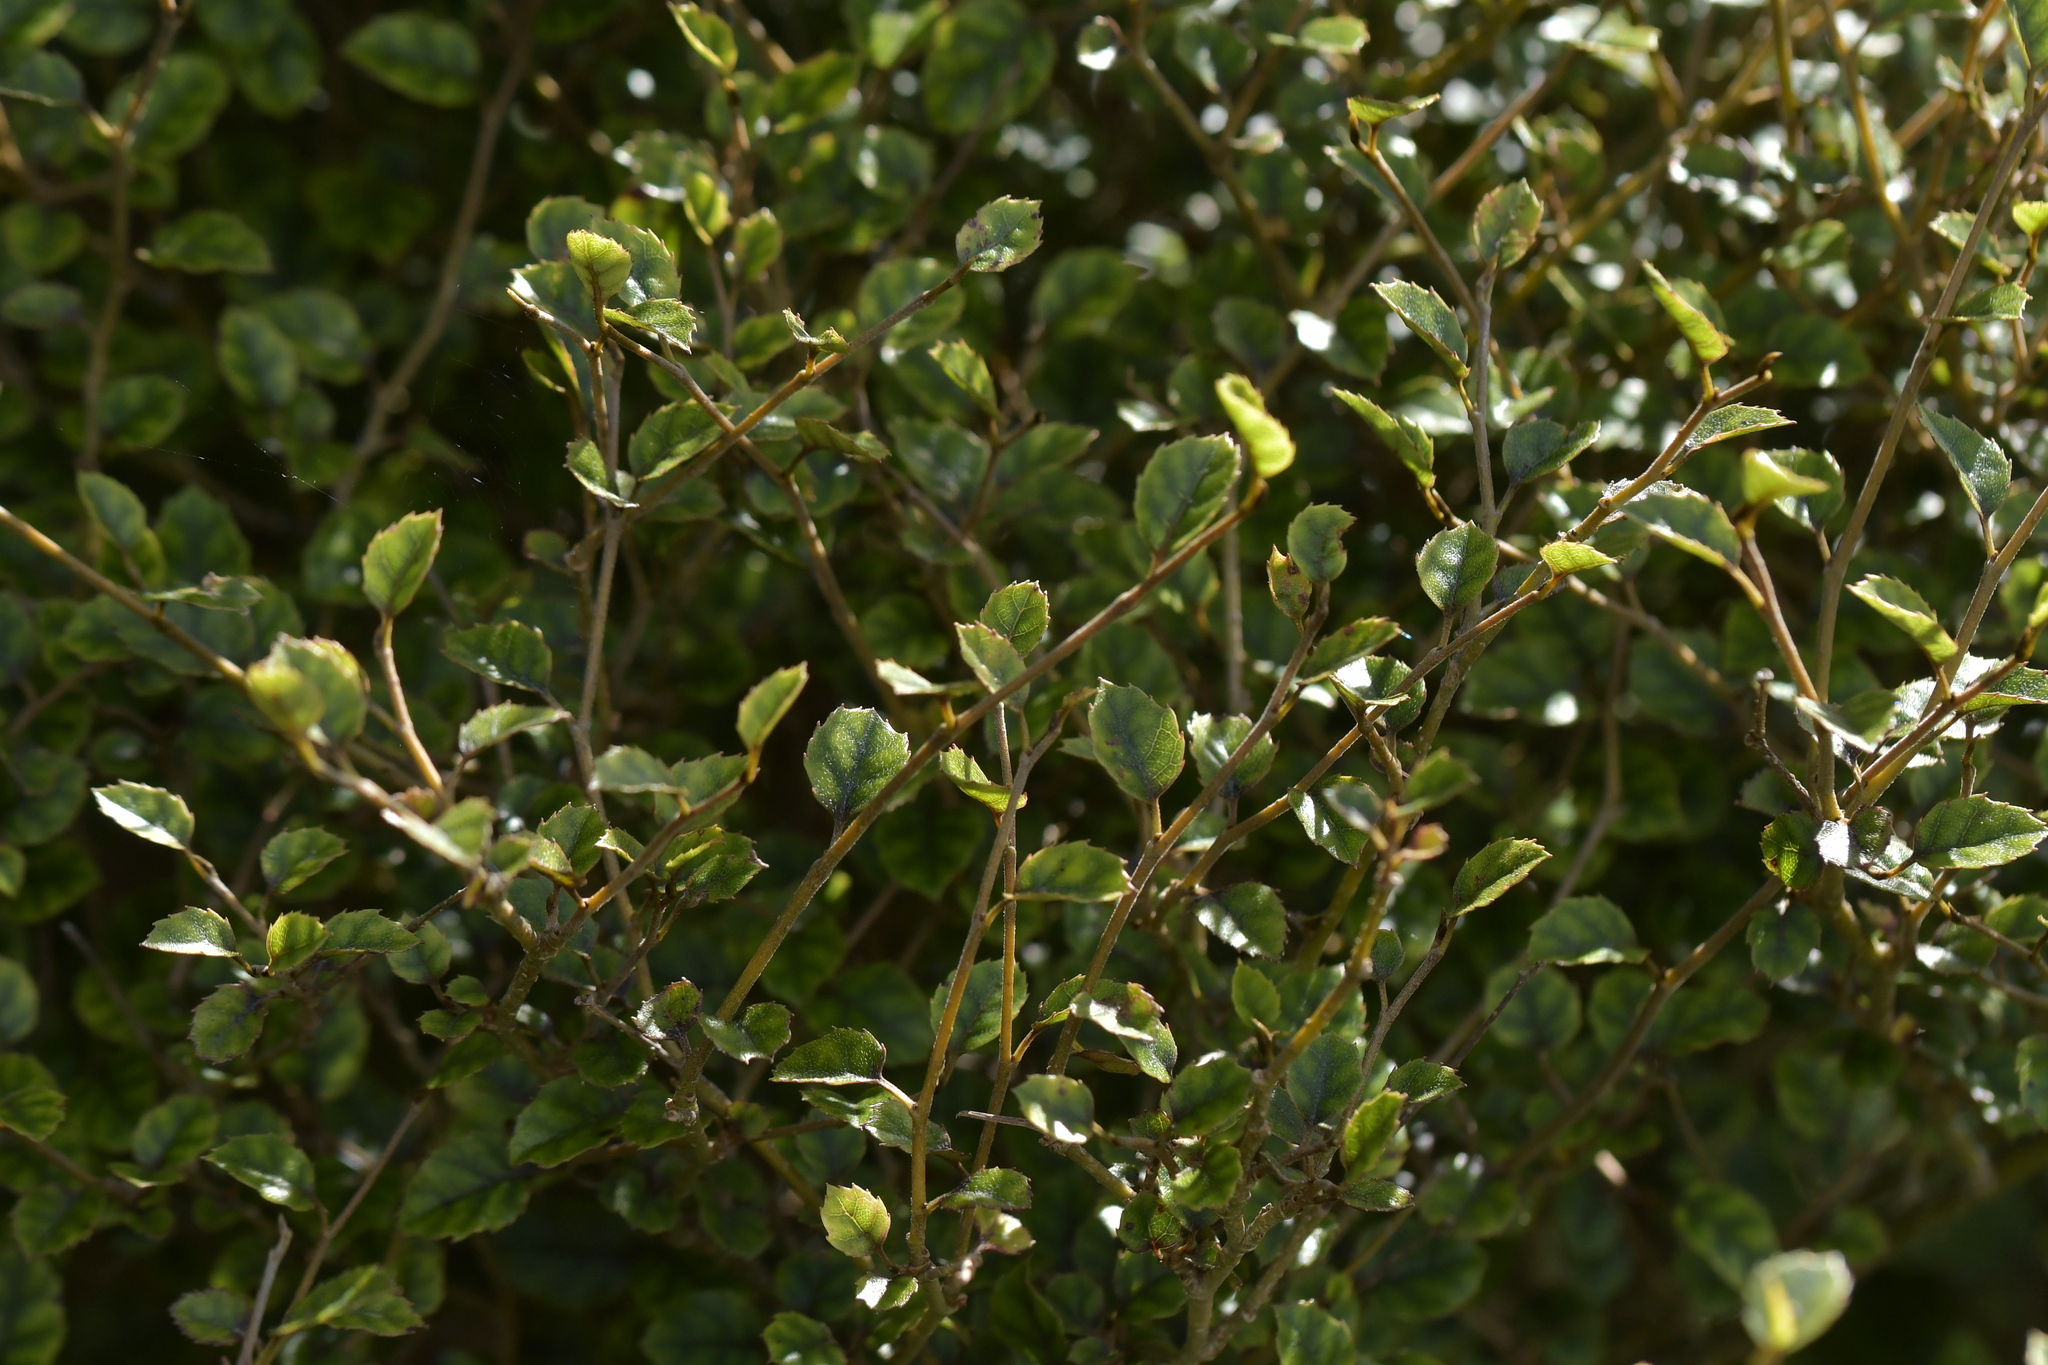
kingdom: Plantae
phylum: Tracheophyta
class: Magnoliopsida
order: Asterales
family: Rousseaceae
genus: Carpodetus
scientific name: Carpodetus serratus
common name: White mapau
